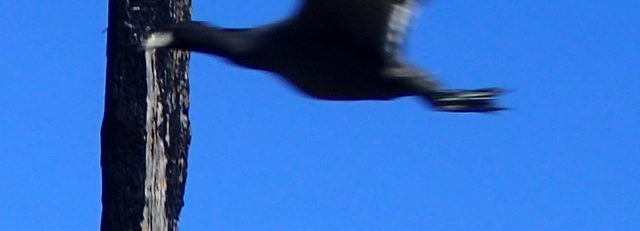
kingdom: Animalia
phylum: Chordata
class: Aves
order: Gruiformes
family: Rallidae
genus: Fulica
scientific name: Fulica americana
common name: American coot
